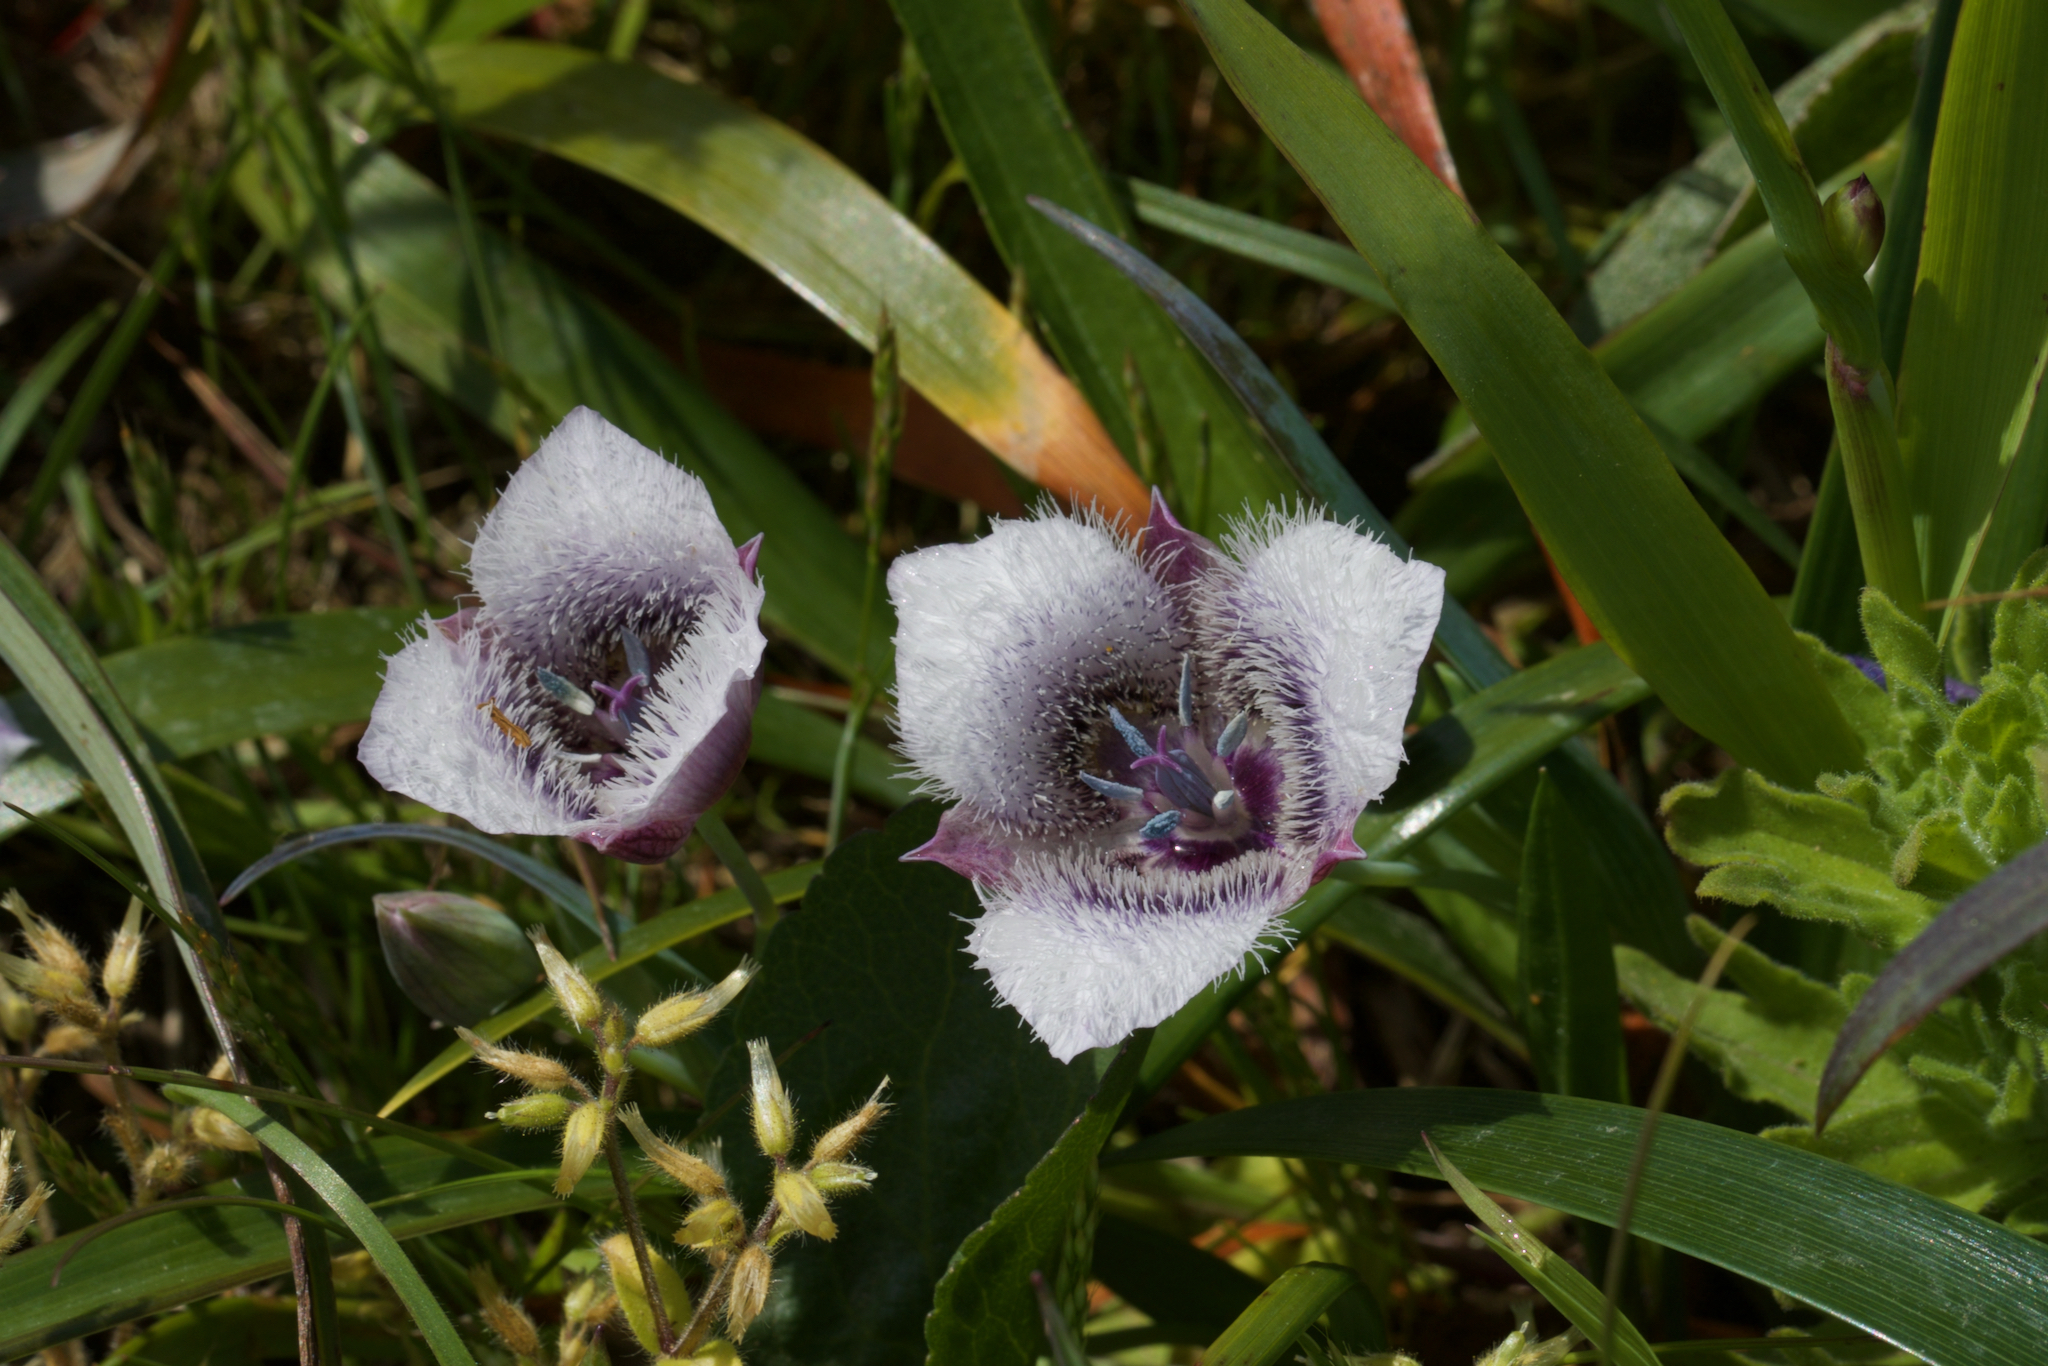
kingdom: Plantae
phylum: Tracheophyta
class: Liliopsida
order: Liliales
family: Liliaceae
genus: Calochortus
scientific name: Calochortus tolmiei
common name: Pussy-ears
